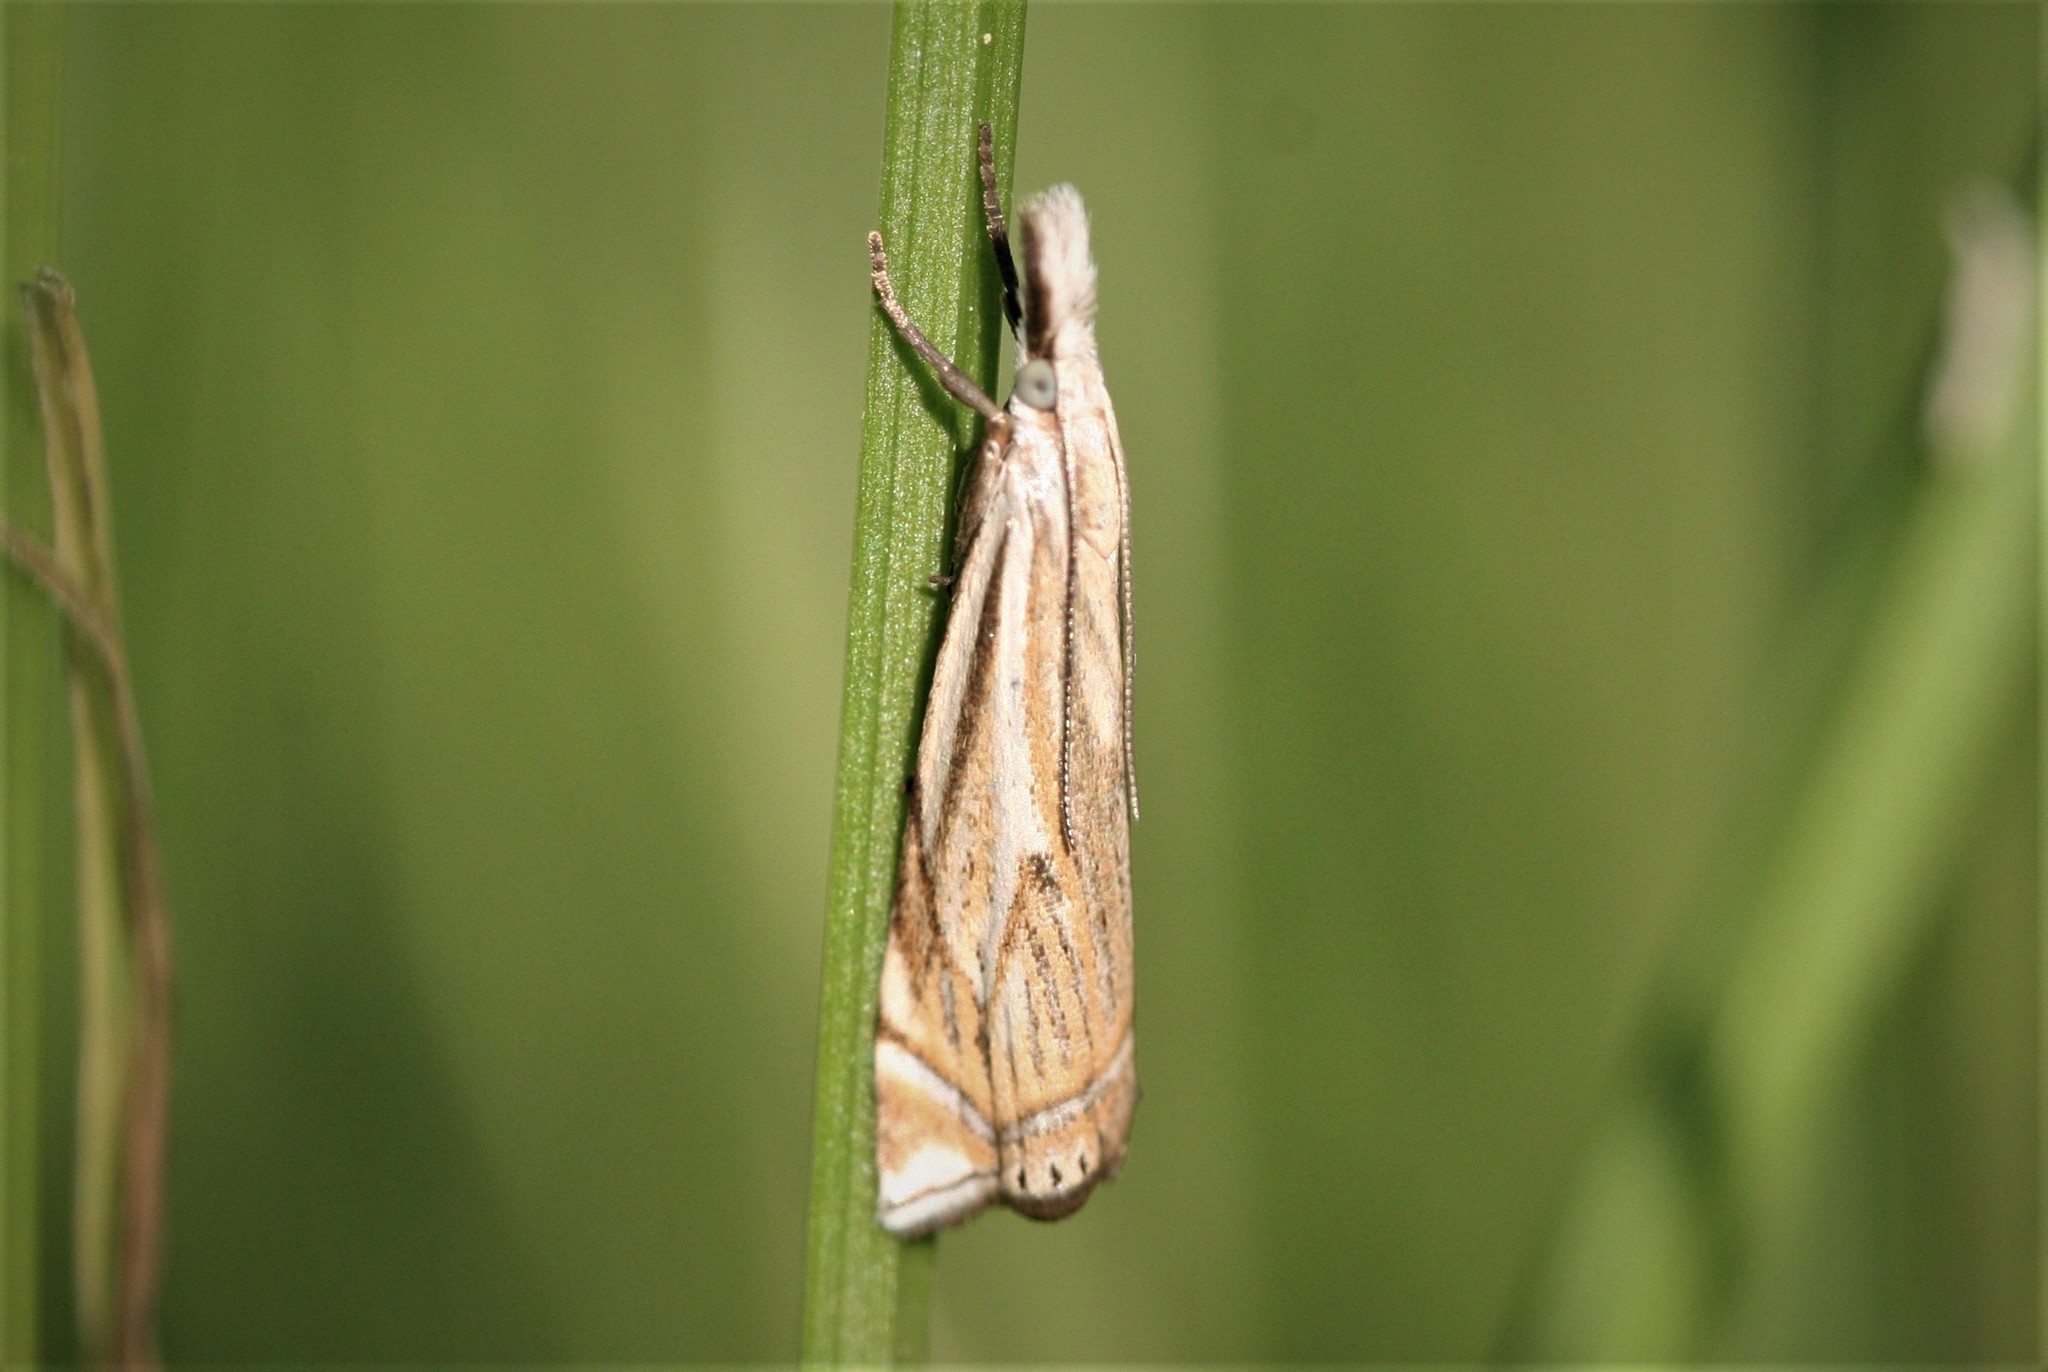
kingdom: Animalia
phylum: Arthropoda
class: Insecta
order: Lepidoptera
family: Crambidae
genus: Crambus
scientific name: Crambus nemorella
